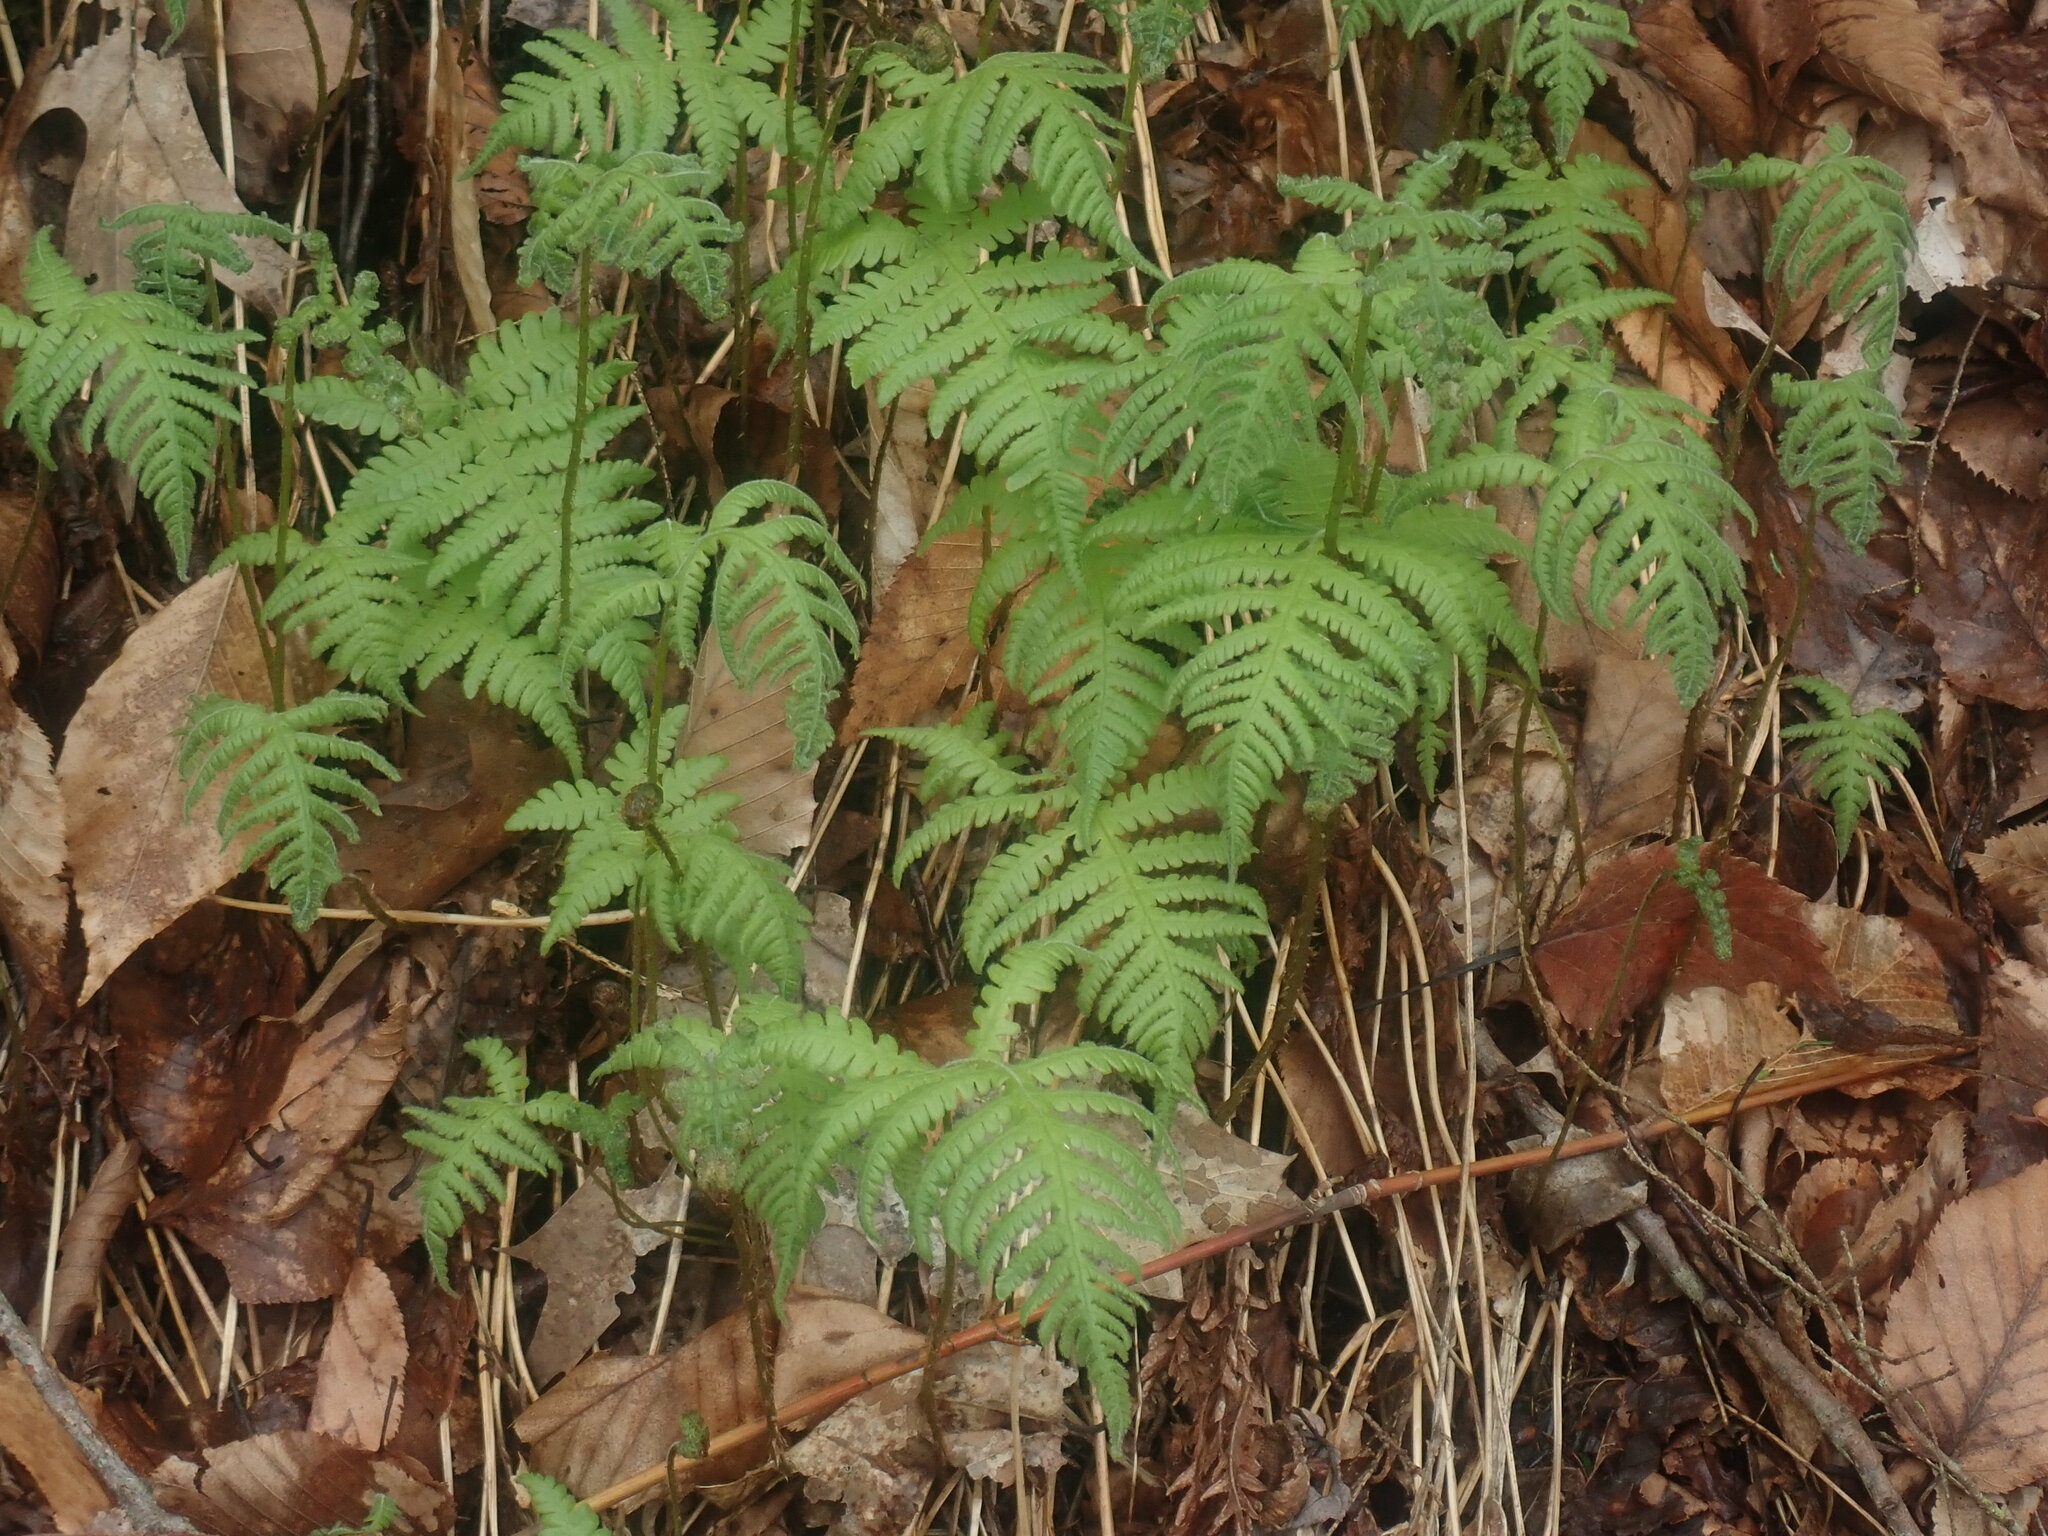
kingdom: Plantae
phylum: Tracheophyta
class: Polypodiopsida
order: Polypodiales
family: Thelypteridaceae
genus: Phegopteris
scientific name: Phegopteris connectilis
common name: Beech fern
